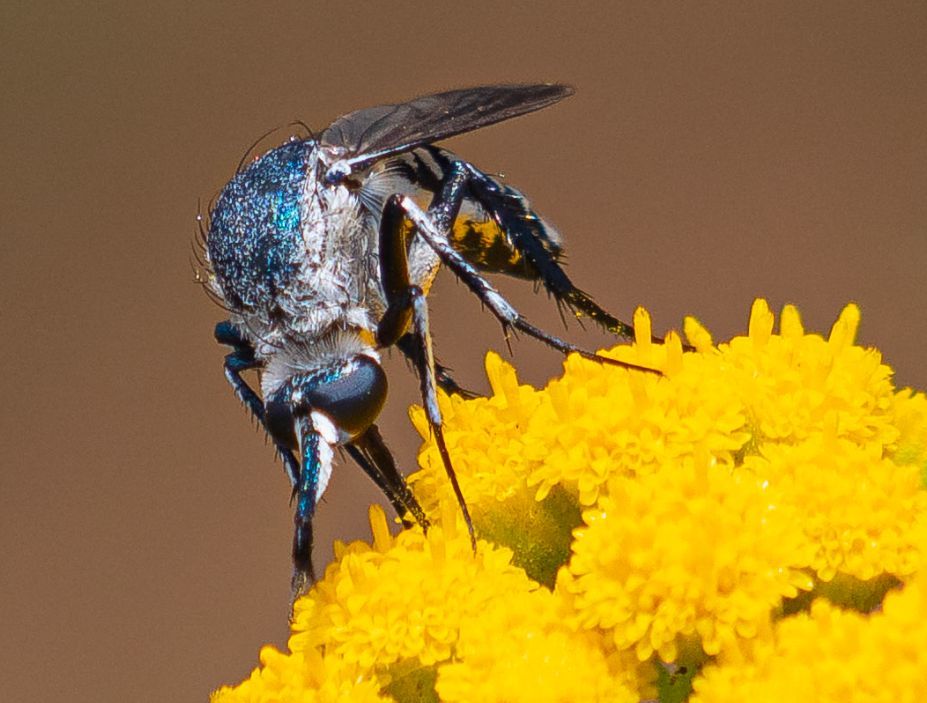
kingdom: Animalia
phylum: Arthropoda
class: Insecta
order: Diptera
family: Bombyliidae
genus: Toxophora
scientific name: Toxophora diploptera
